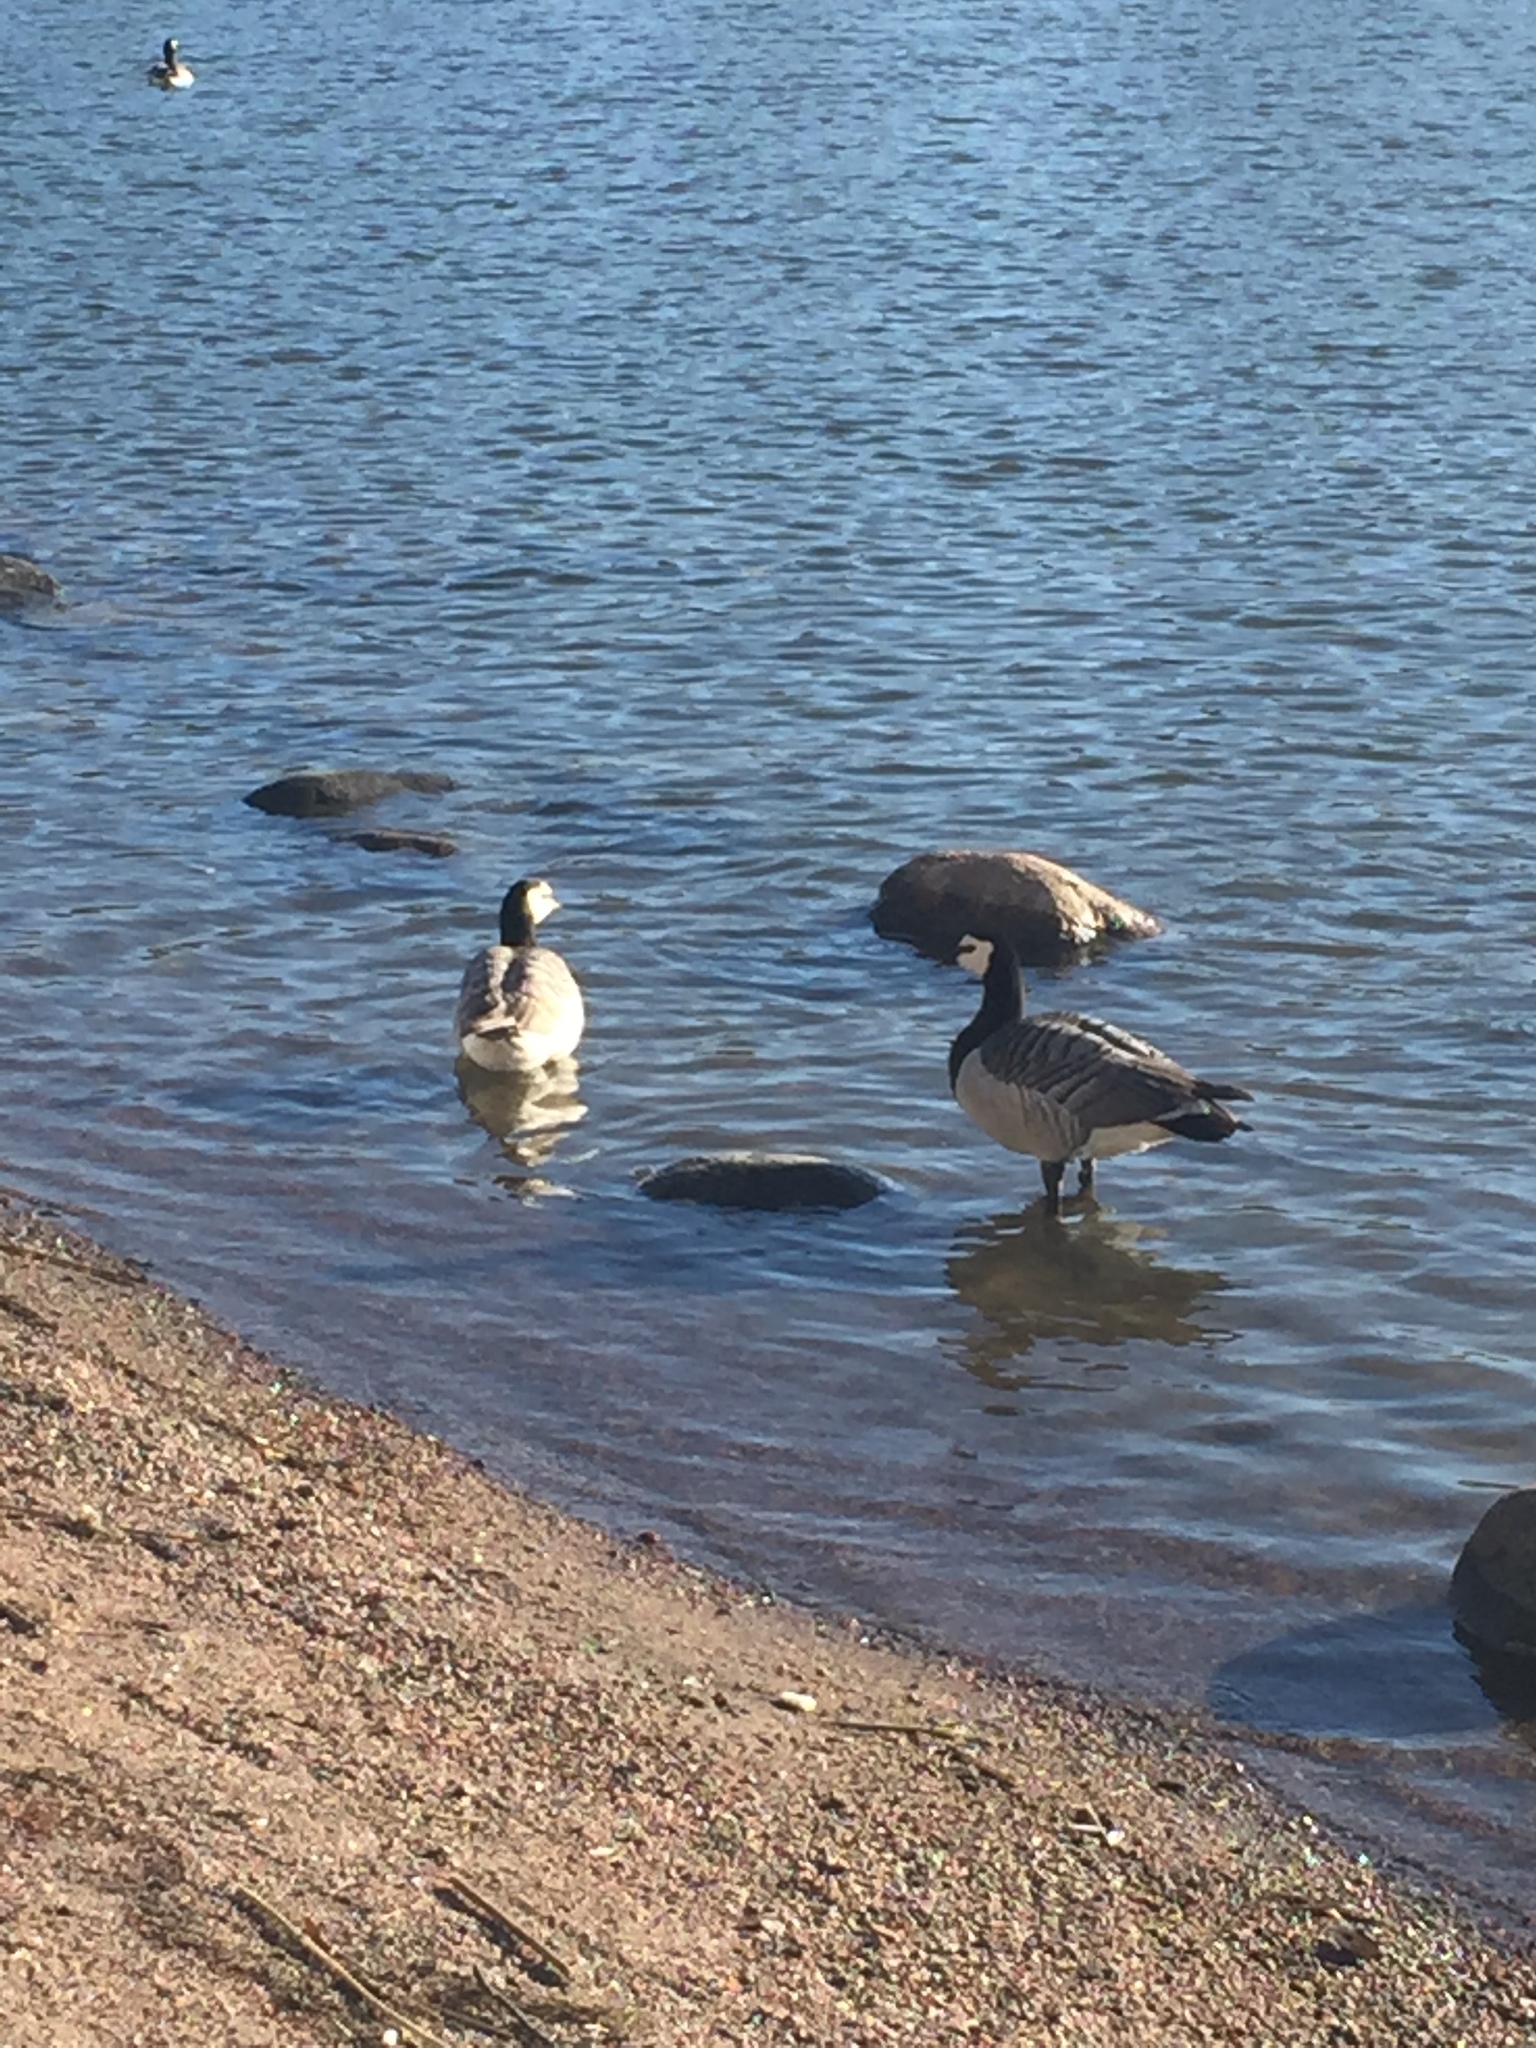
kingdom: Animalia
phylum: Chordata
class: Aves
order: Anseriformes
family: Anatidae
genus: Branta
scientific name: Branta leucopsis
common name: Barnacle goose
